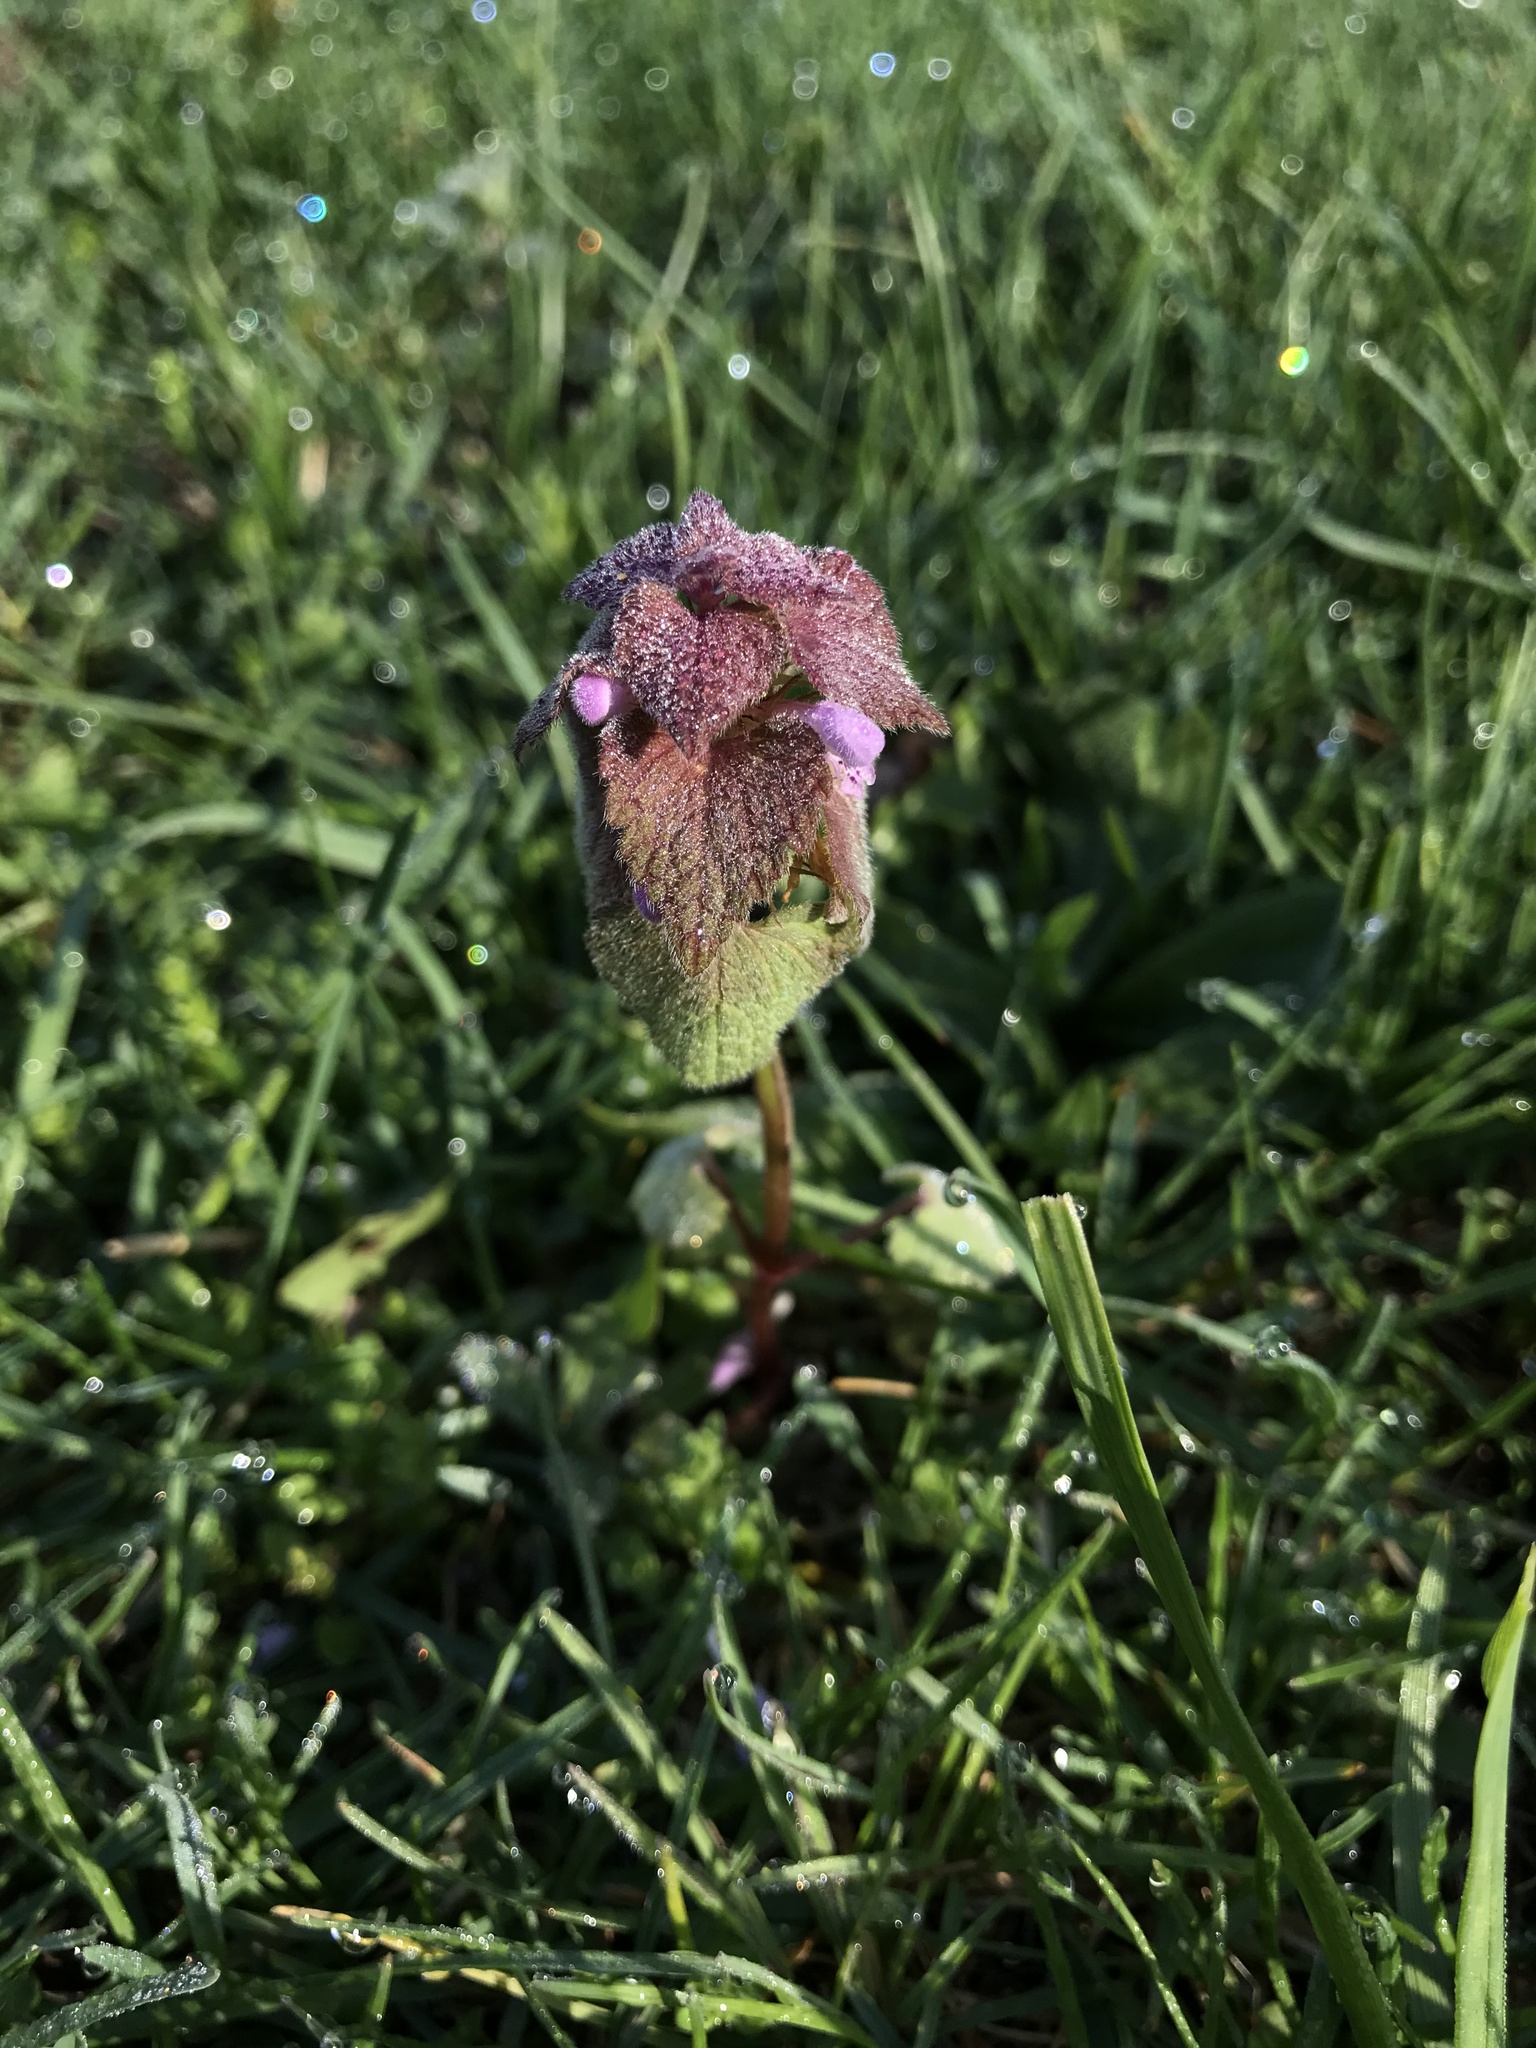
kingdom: Plantae
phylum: Tracheophyta
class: Magnoliopsida
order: Lamiales
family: Lamiaceae
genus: Lamium
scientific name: Lamium purpureum
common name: Red dead-nettle
